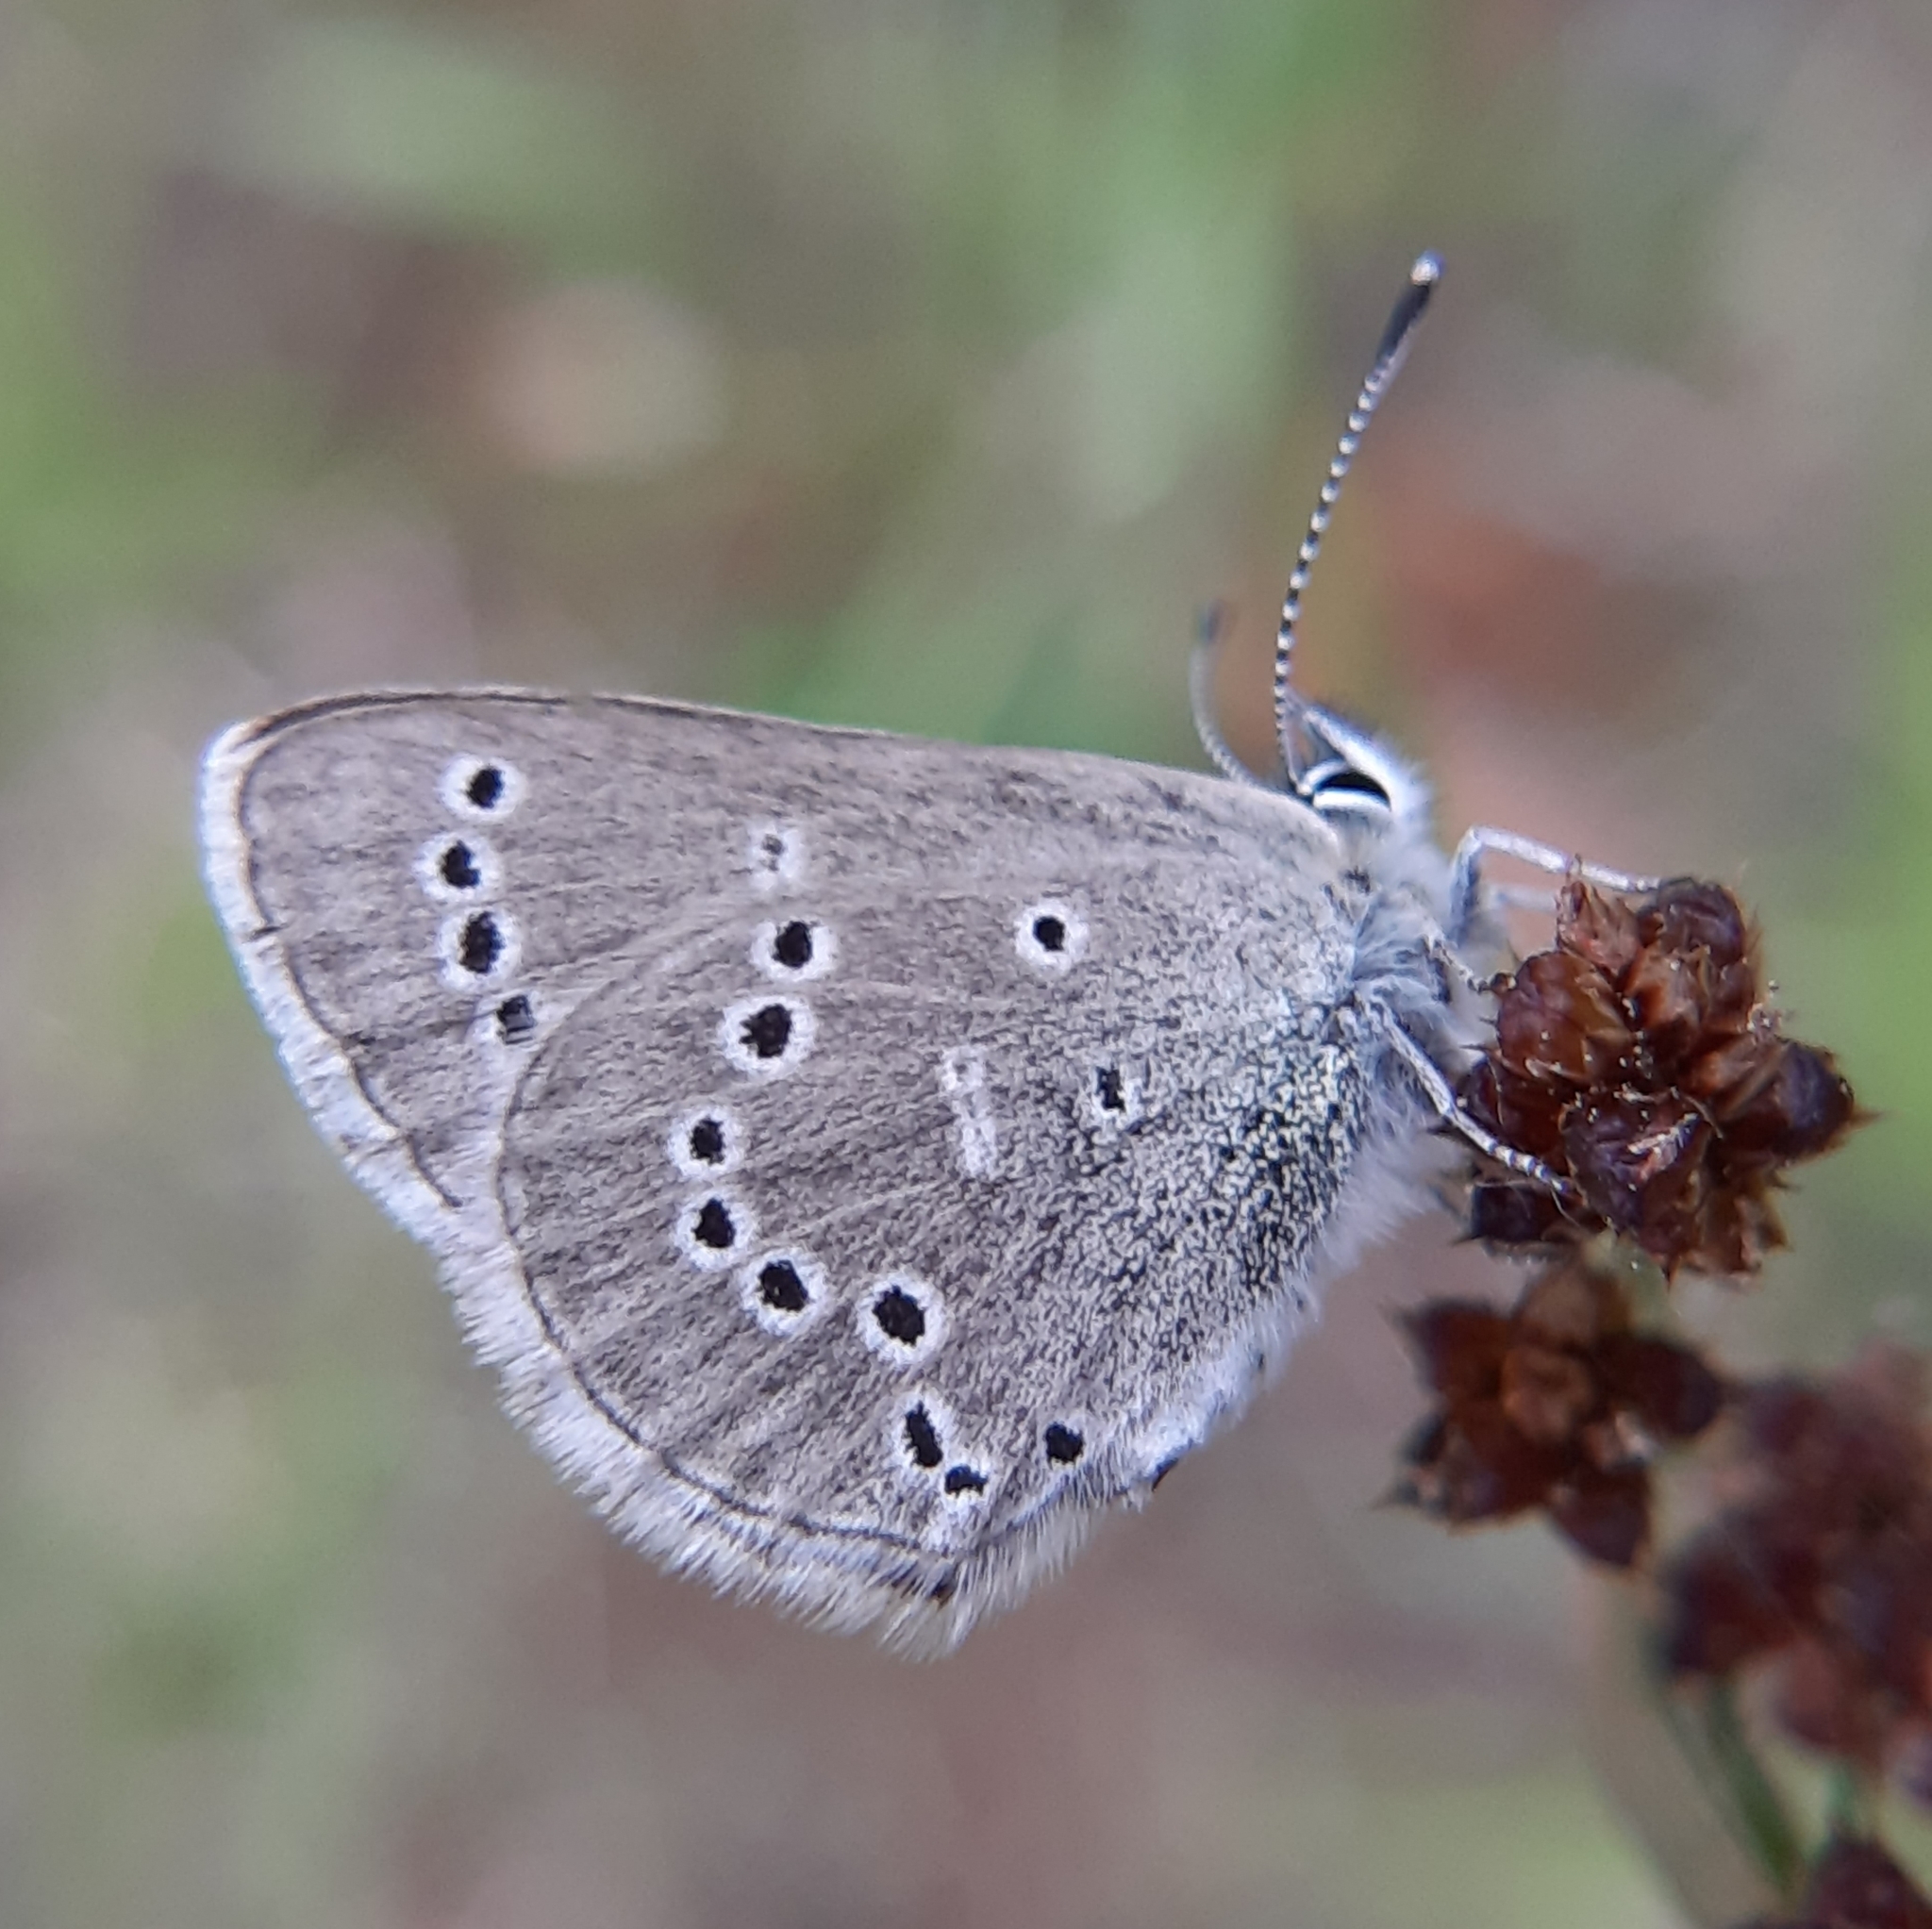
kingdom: Animalia
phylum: Arthropoda
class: Insecta
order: Lepidoptera
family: Lycaenidae
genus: Glaucopsyche
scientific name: Glaucopsyche lygdamus
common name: Silvery blue
